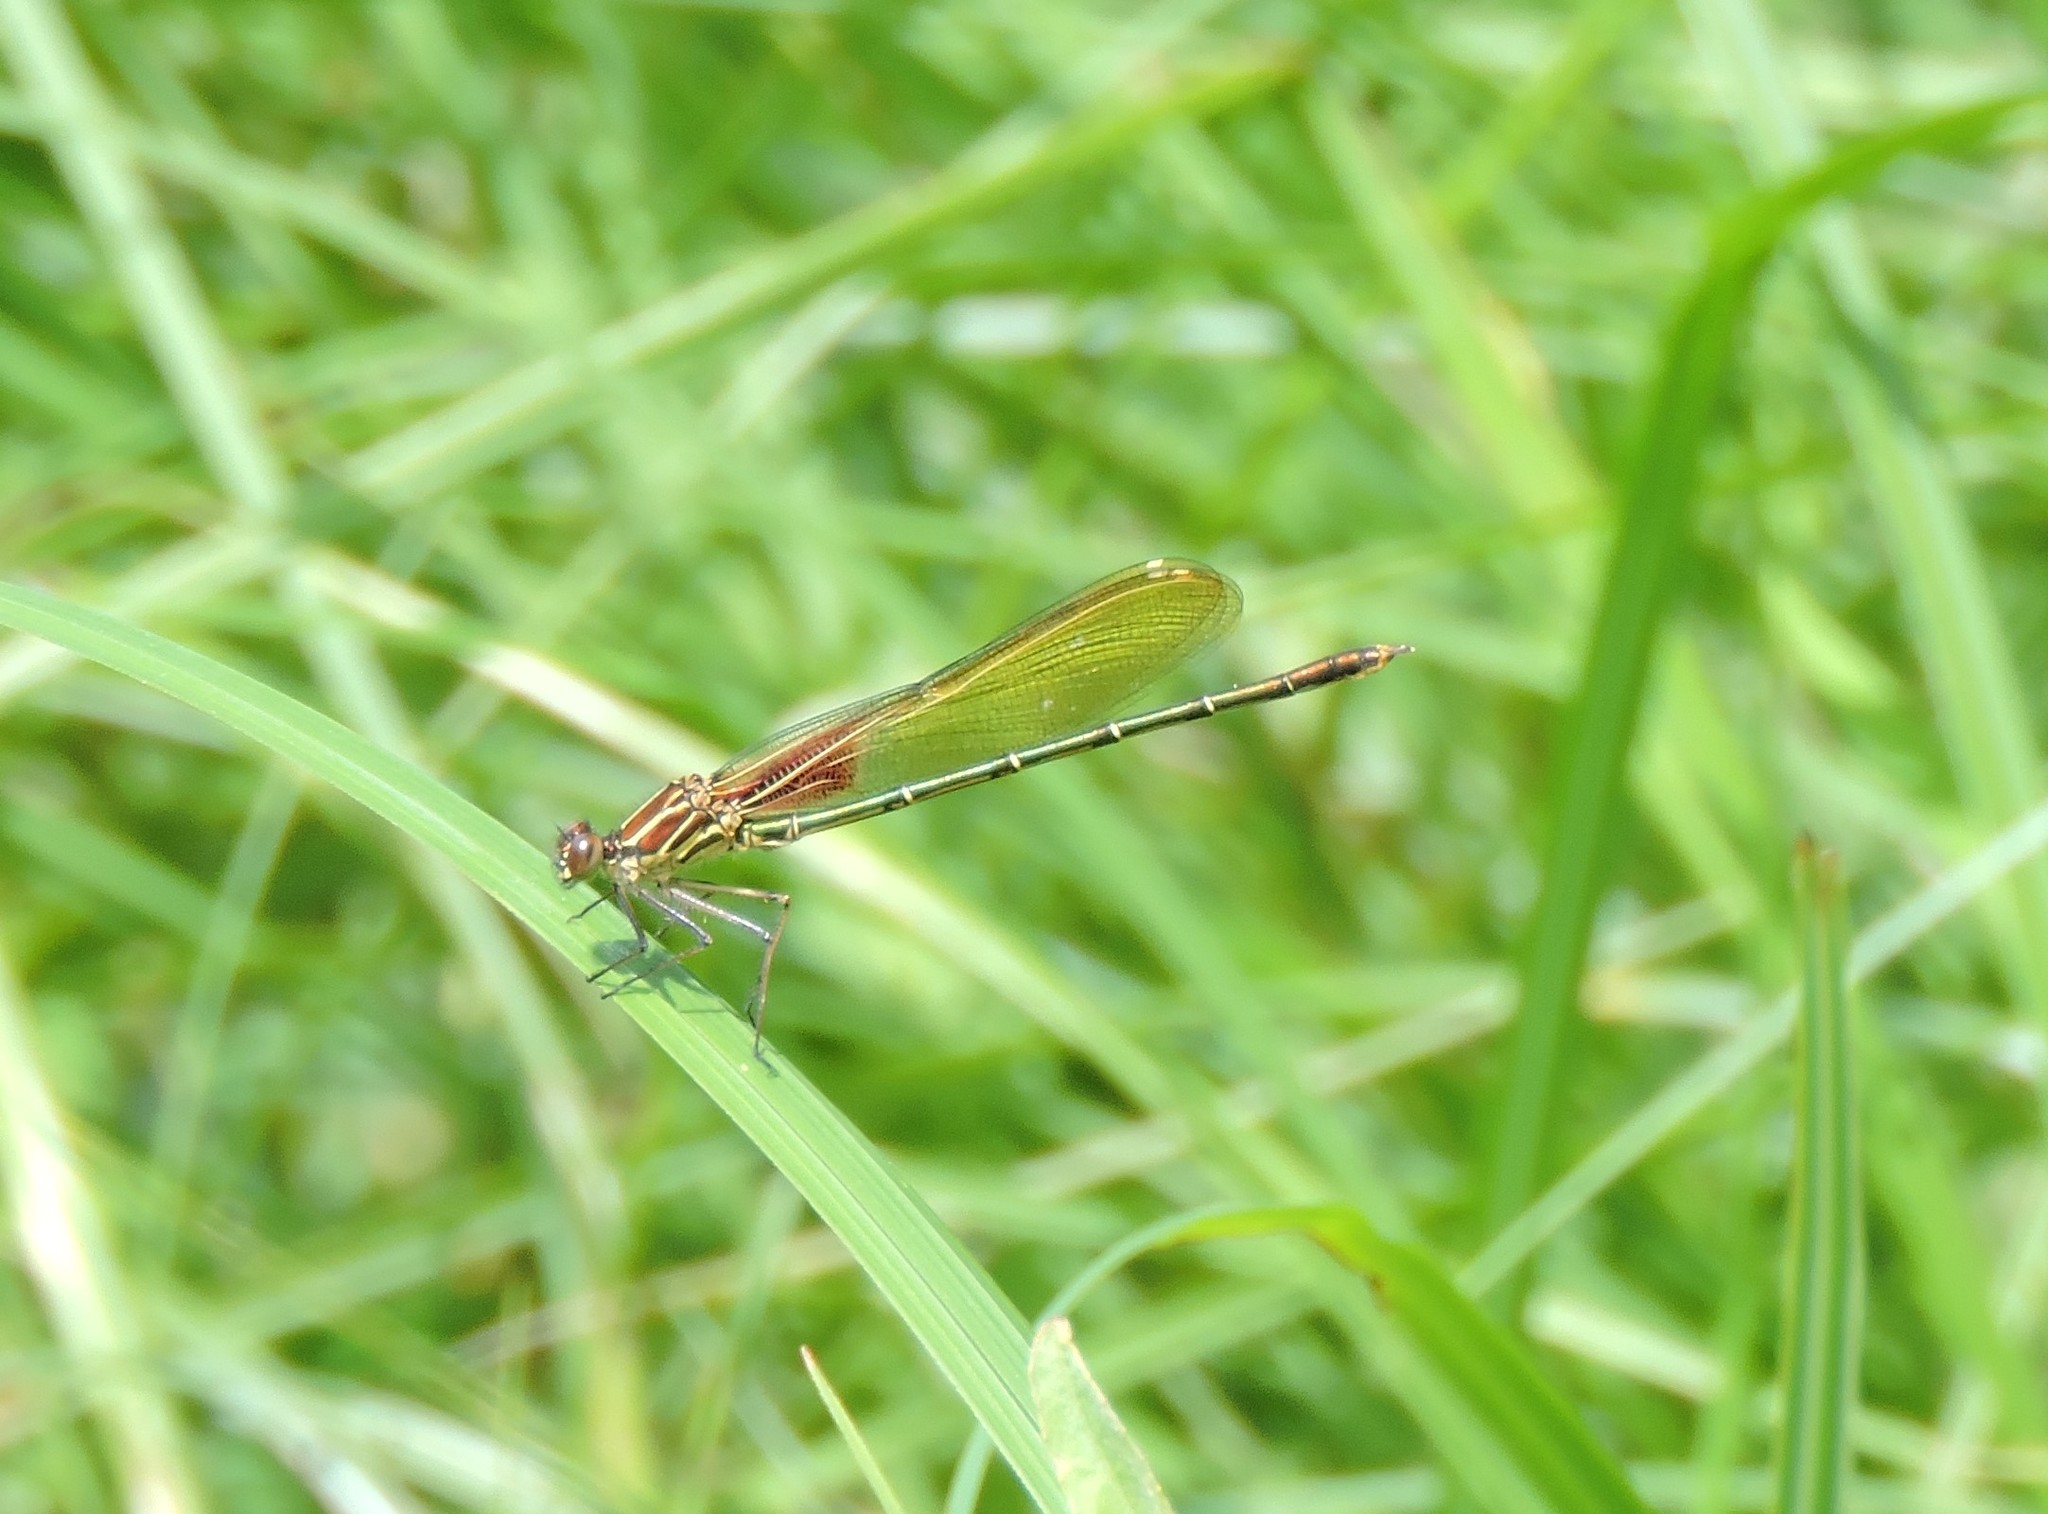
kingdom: Animalia
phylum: Arthropoda
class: Insecta
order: Odonata
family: Calopterygidae
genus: Hetaerina
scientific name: Hetaerina americana
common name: American rubyspot
